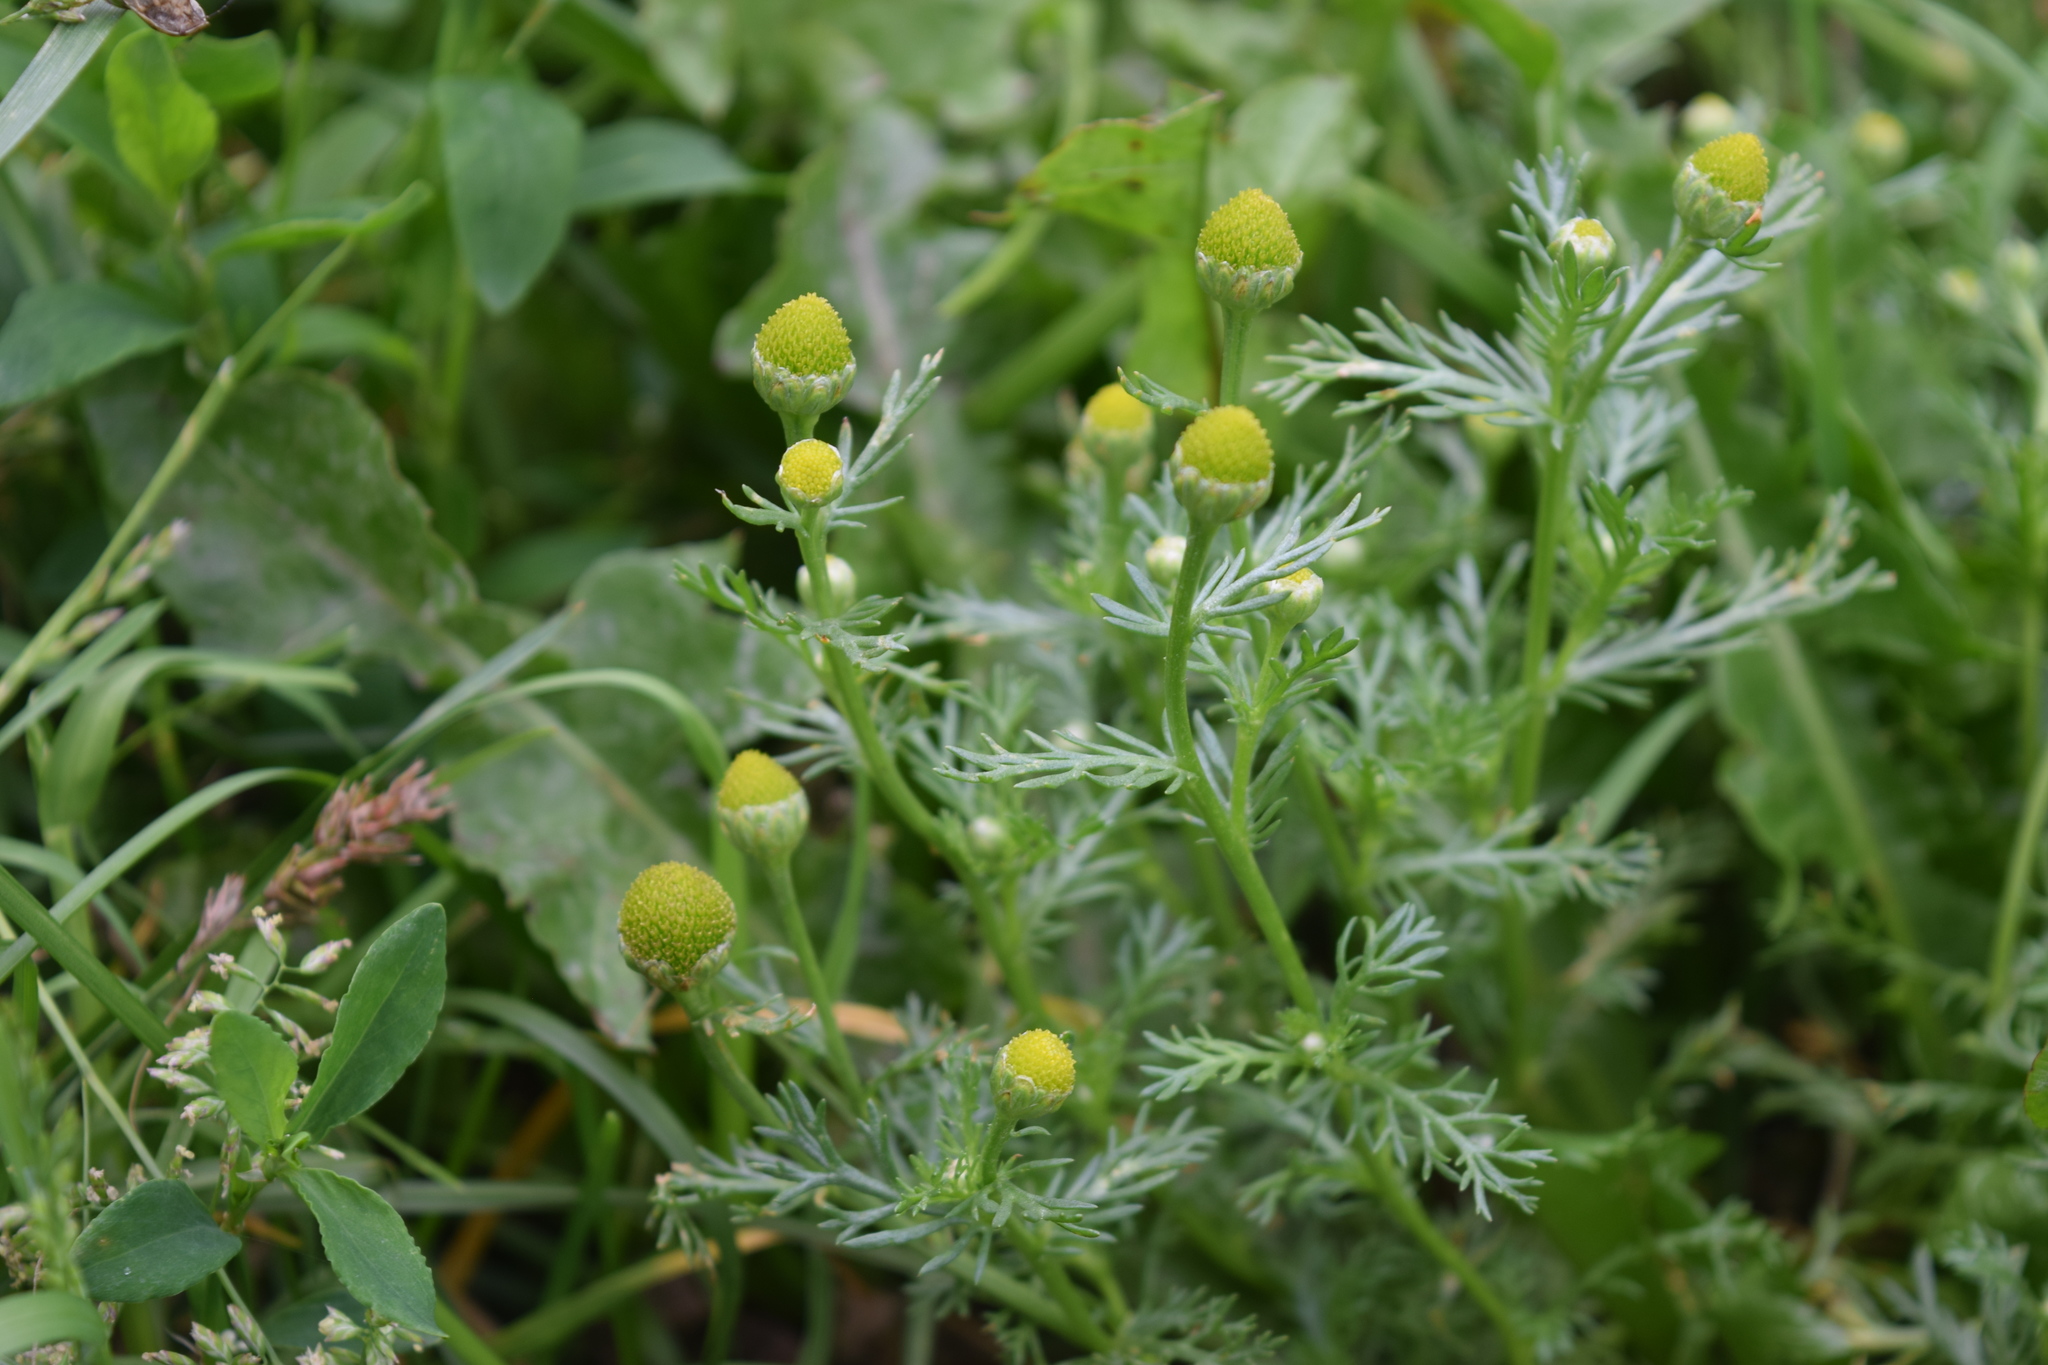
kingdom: Plantae
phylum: Tracheophyta
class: Magnoliopsida
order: Asterales
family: Asteraceae
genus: Matricaria
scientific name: Matricaria discoidea
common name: Disc mayweed
